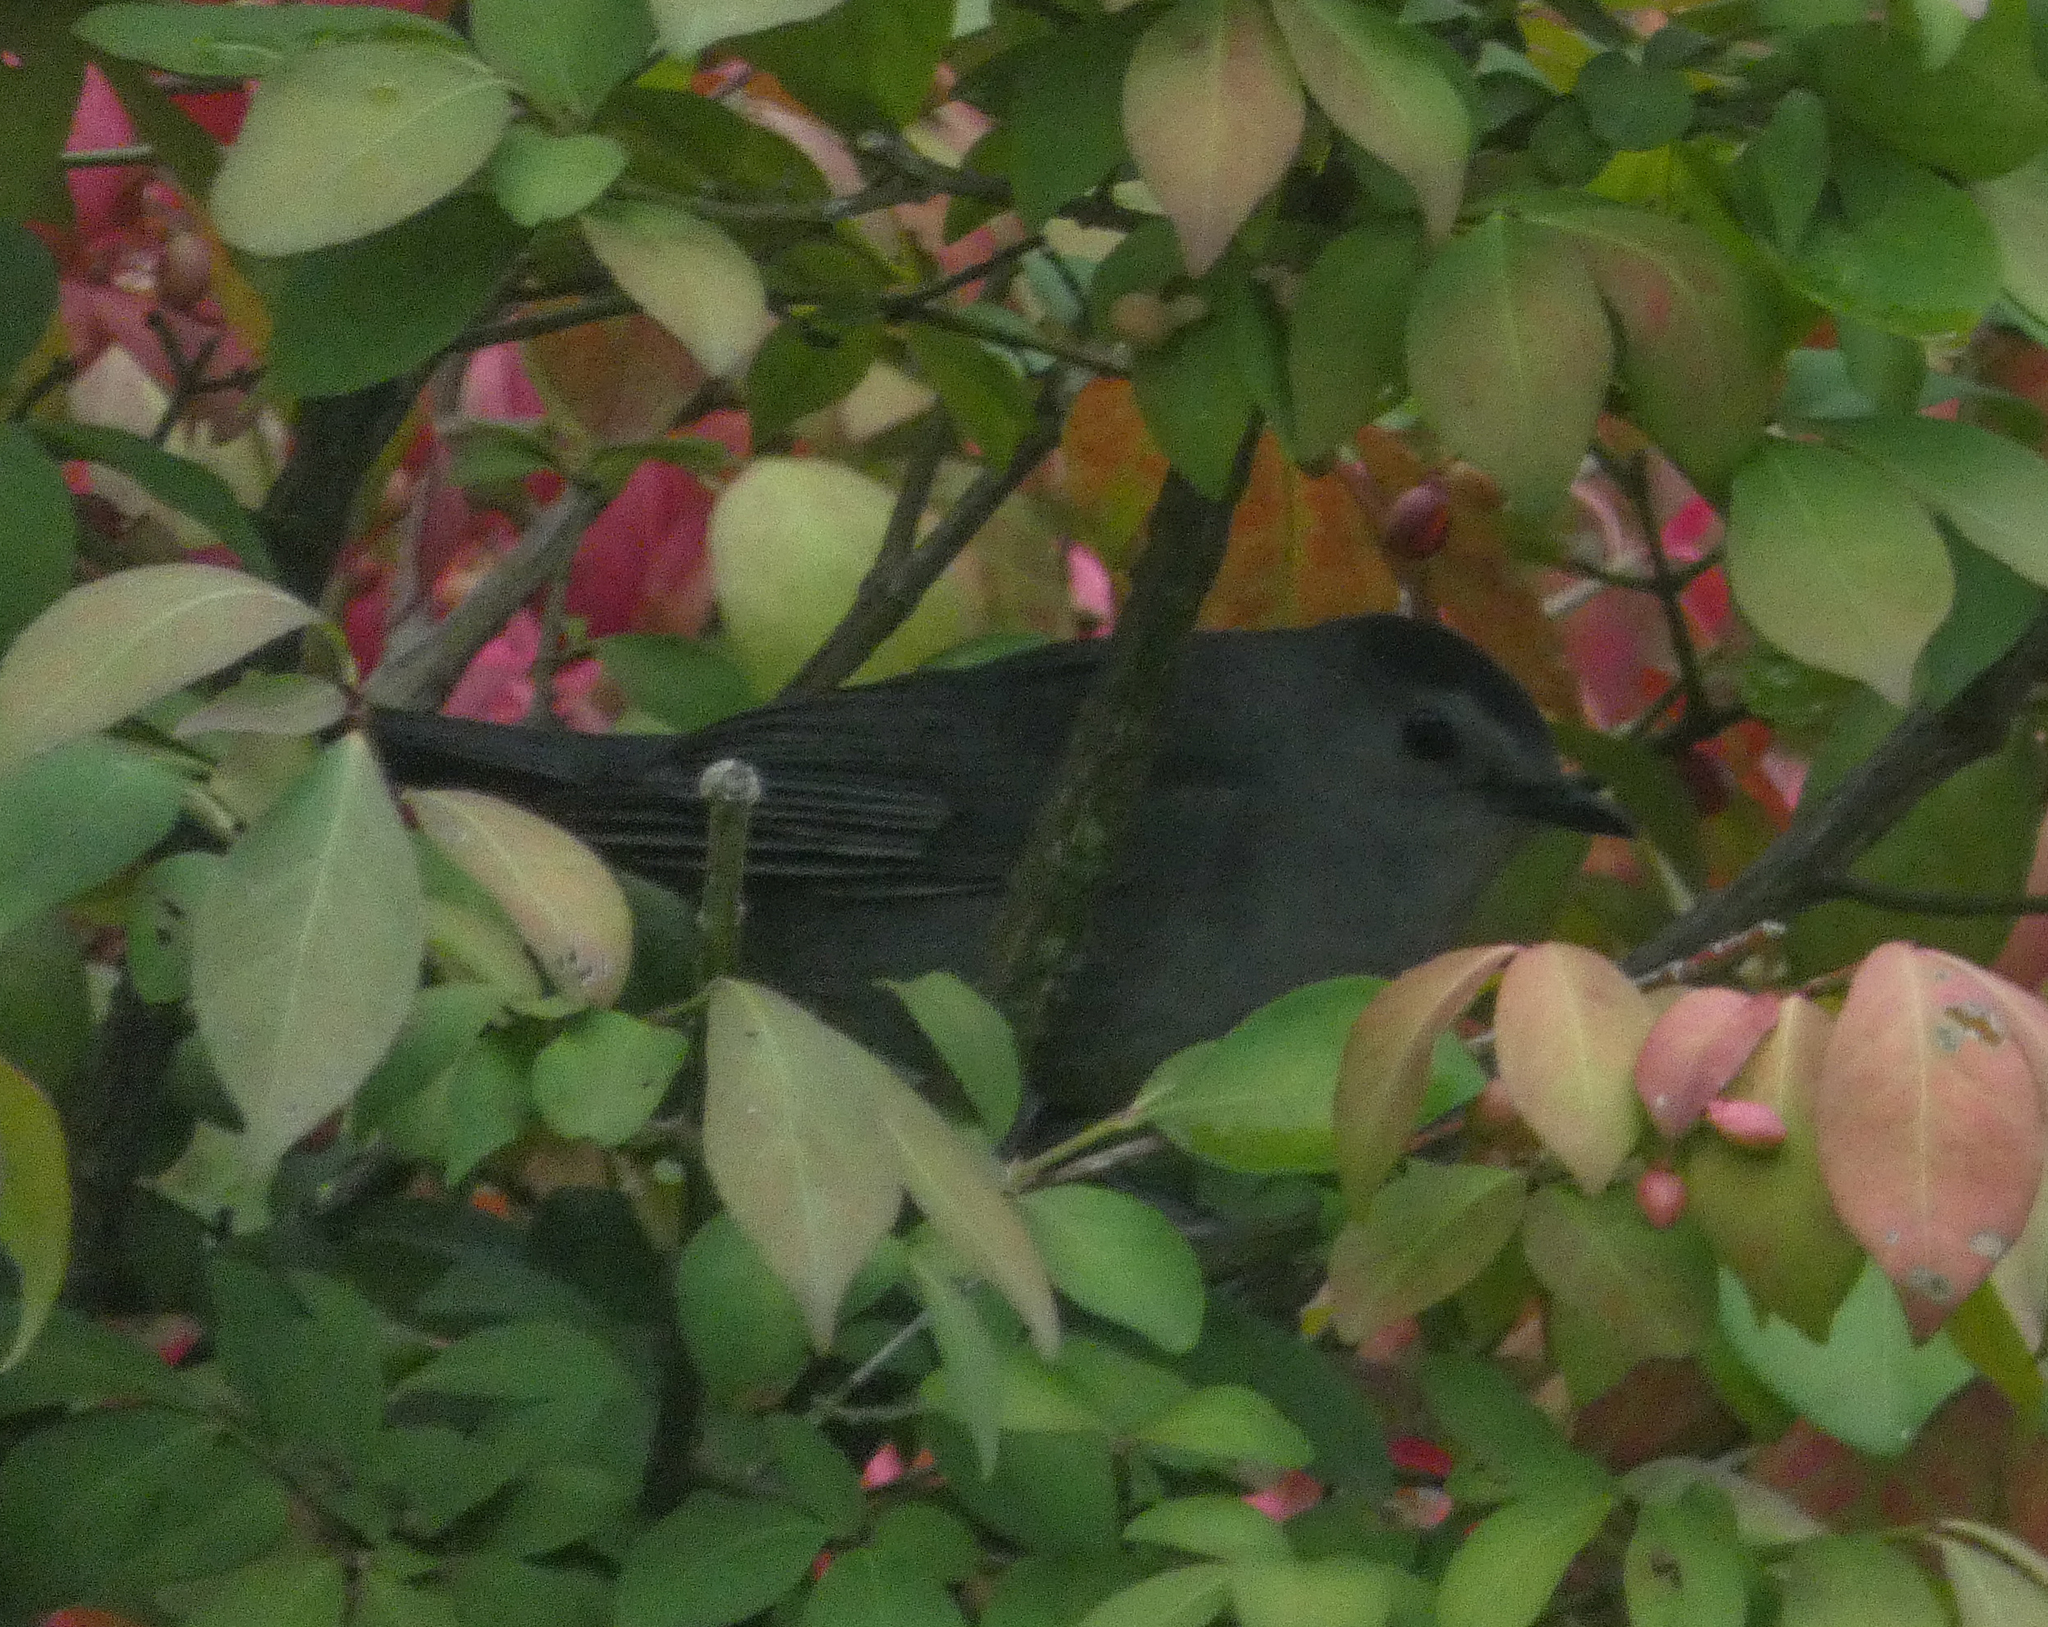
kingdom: Animalia
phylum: Chordata
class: Aves
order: Passeriformes
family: Mimidae
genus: Dumetella
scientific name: Dumetella carolinensis
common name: Gray catbird
